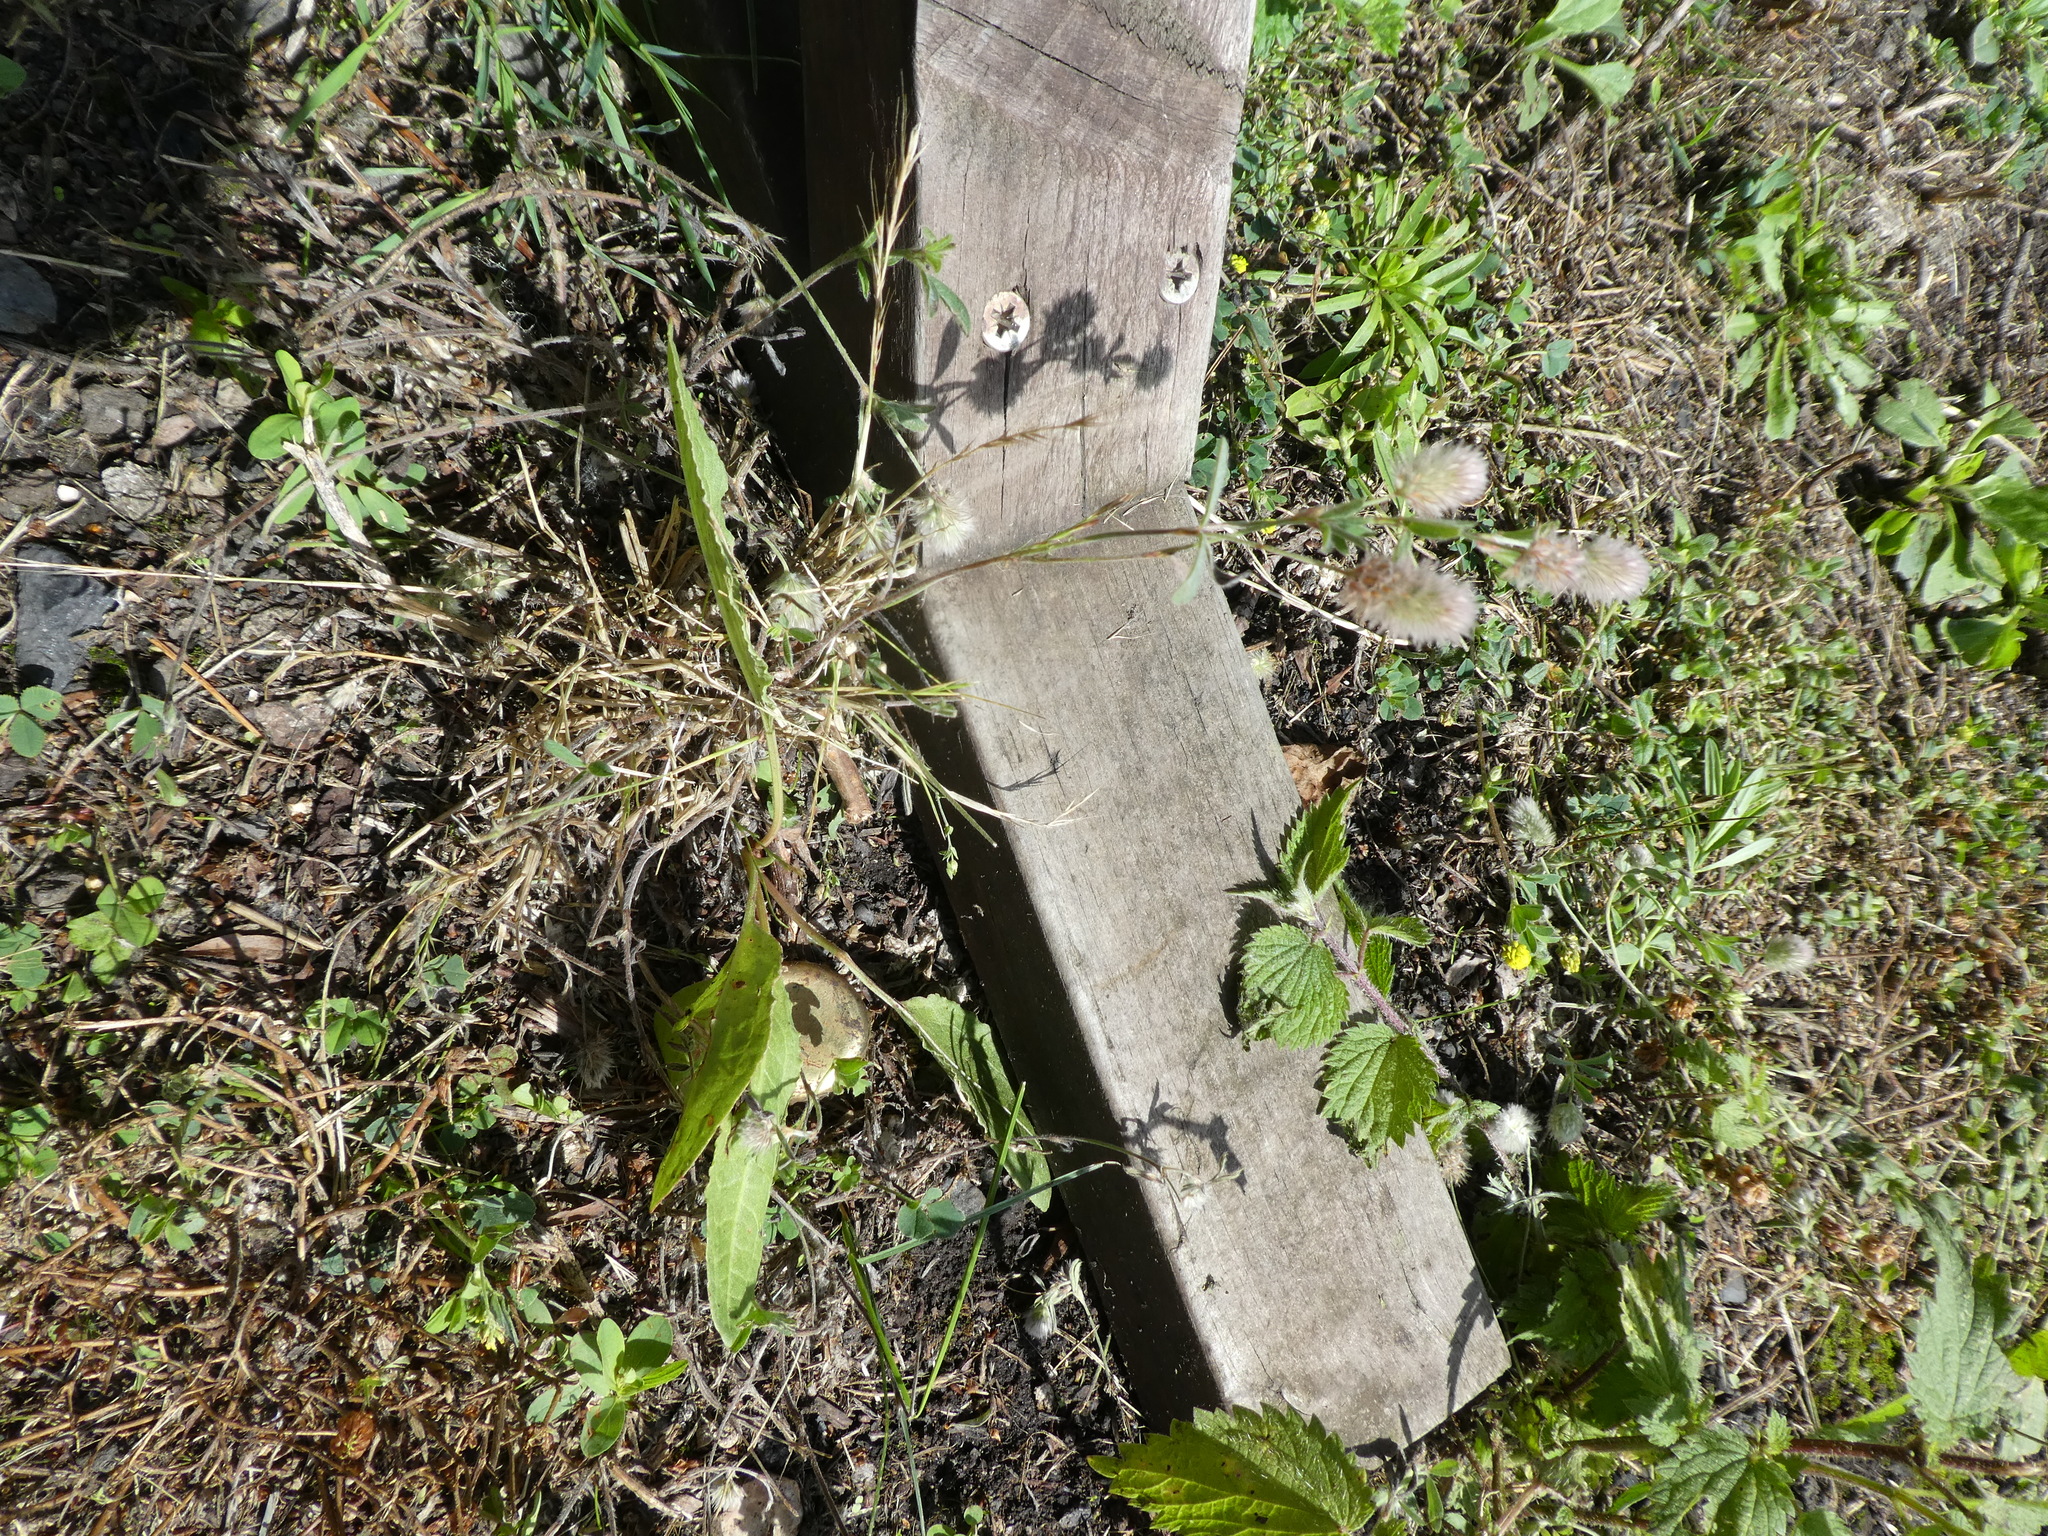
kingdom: Plantae
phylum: Tracheophyta
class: Magnoliopsida
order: Fabales
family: Fabaceae
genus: Trifolium
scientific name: Trifolium arvense
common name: Hare's-foot clover
